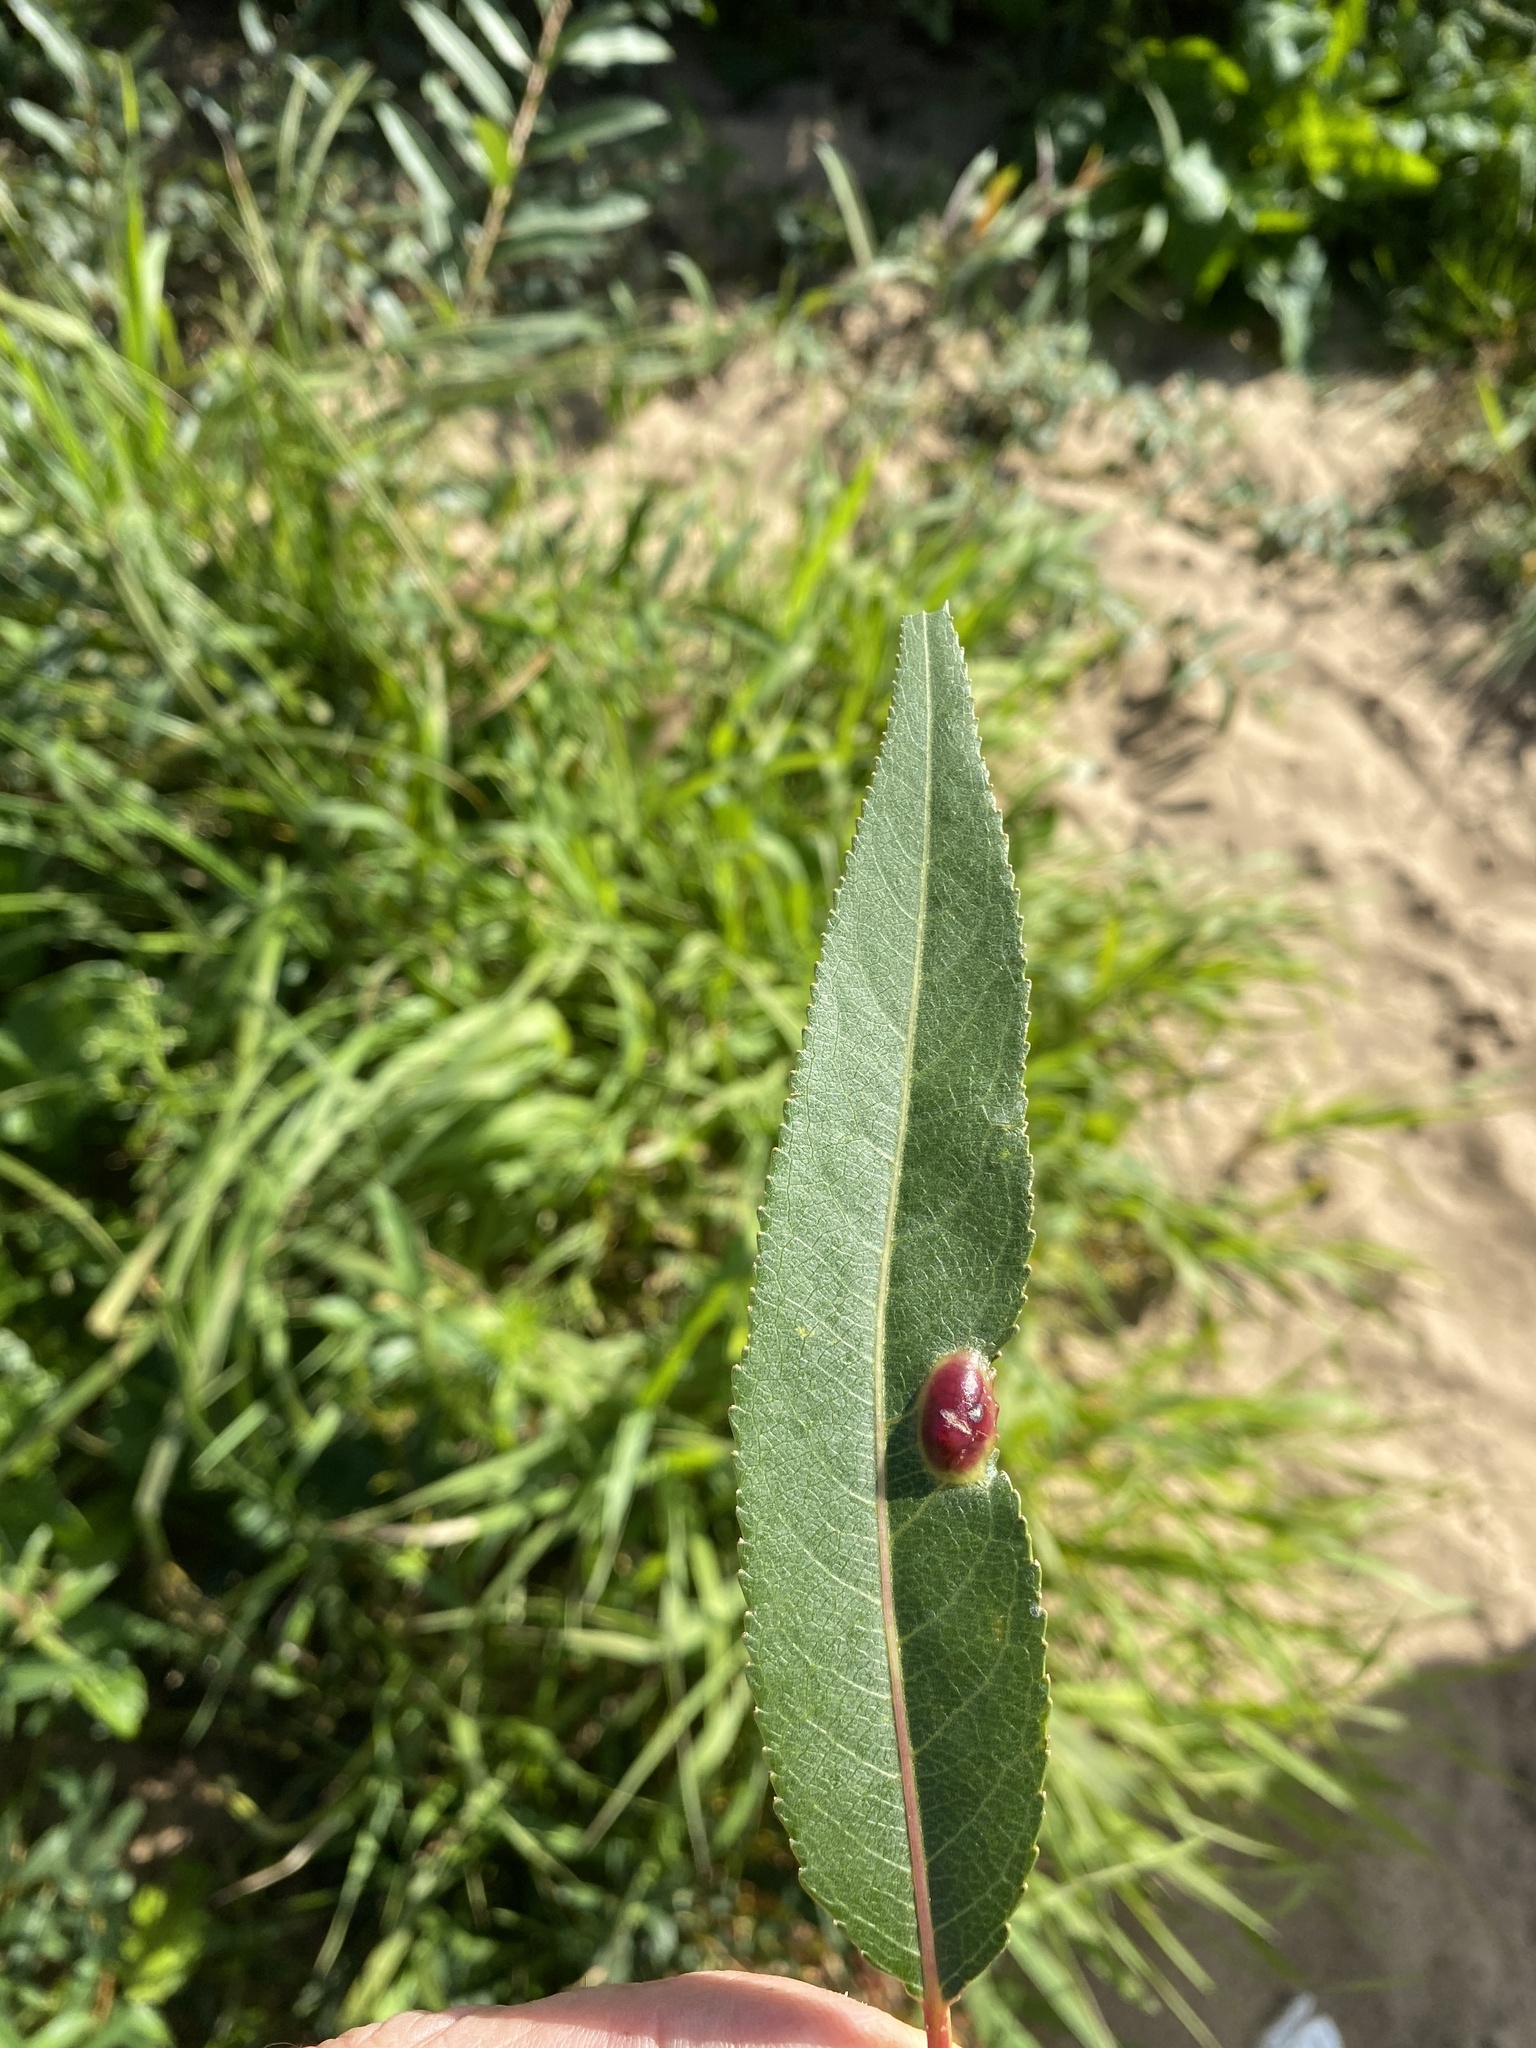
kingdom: Animalia
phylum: Arthropoda
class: Insecta
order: Hymenoptera
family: Tenthredinidae
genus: Pontania
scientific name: Pontania proxima
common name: Common sawfly
